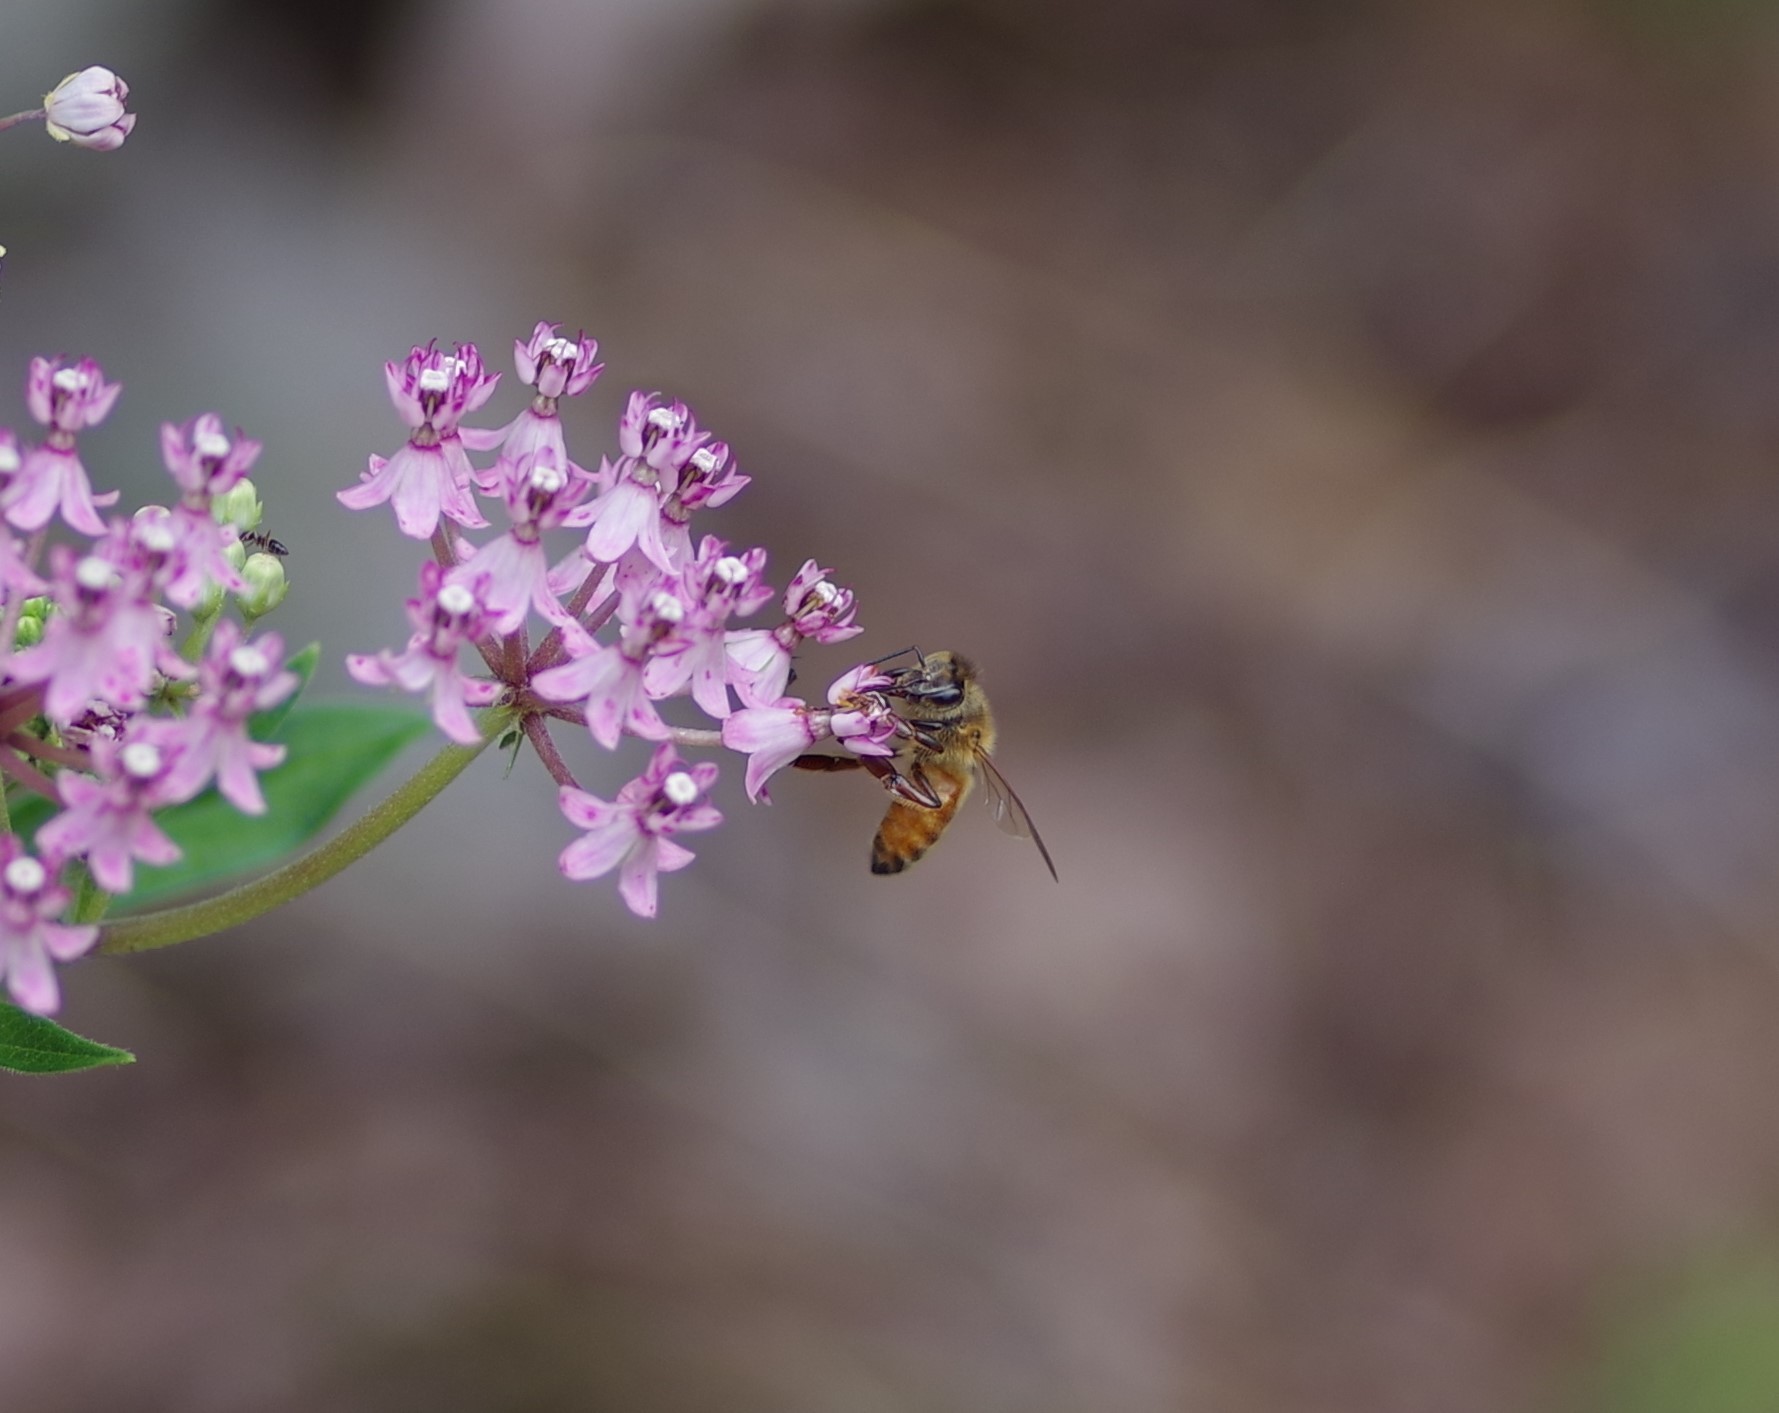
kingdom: Animalia
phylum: Arthropoda
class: Insecta
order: Hymenoptera
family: Apidae
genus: Apis
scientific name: Apis mellifera
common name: Honey bee
